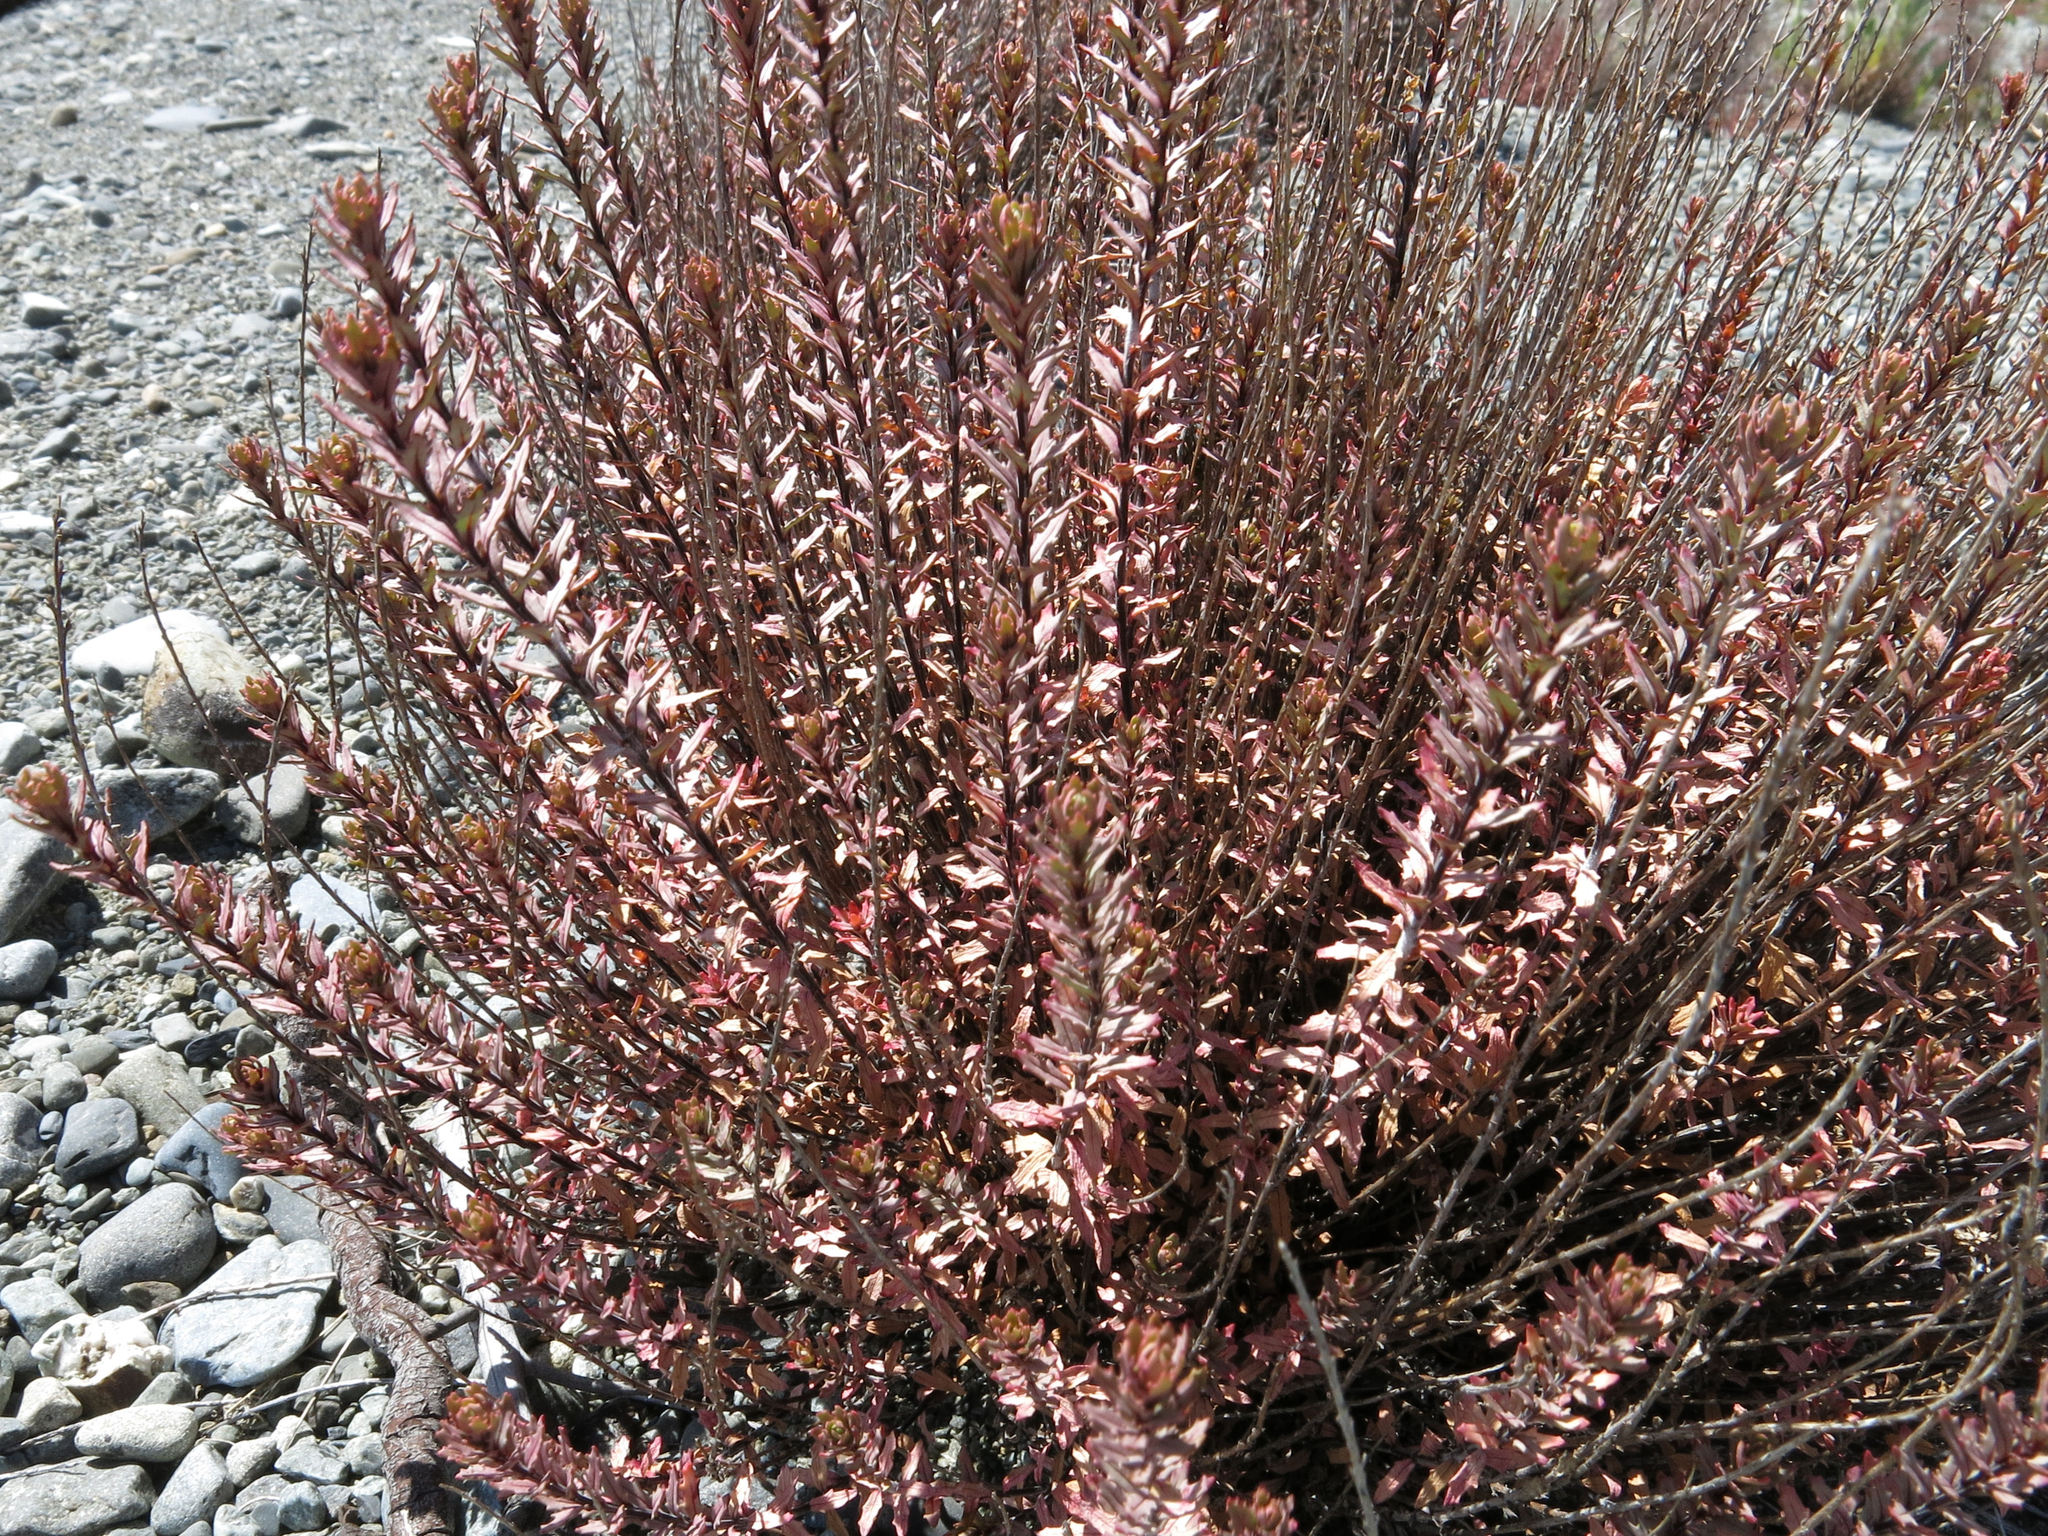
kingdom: Plantae
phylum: Tracheophyta
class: Magnoliopsida
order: Myrtales
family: Onagraceae
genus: Epilobium
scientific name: Epilobium melanocaulon
